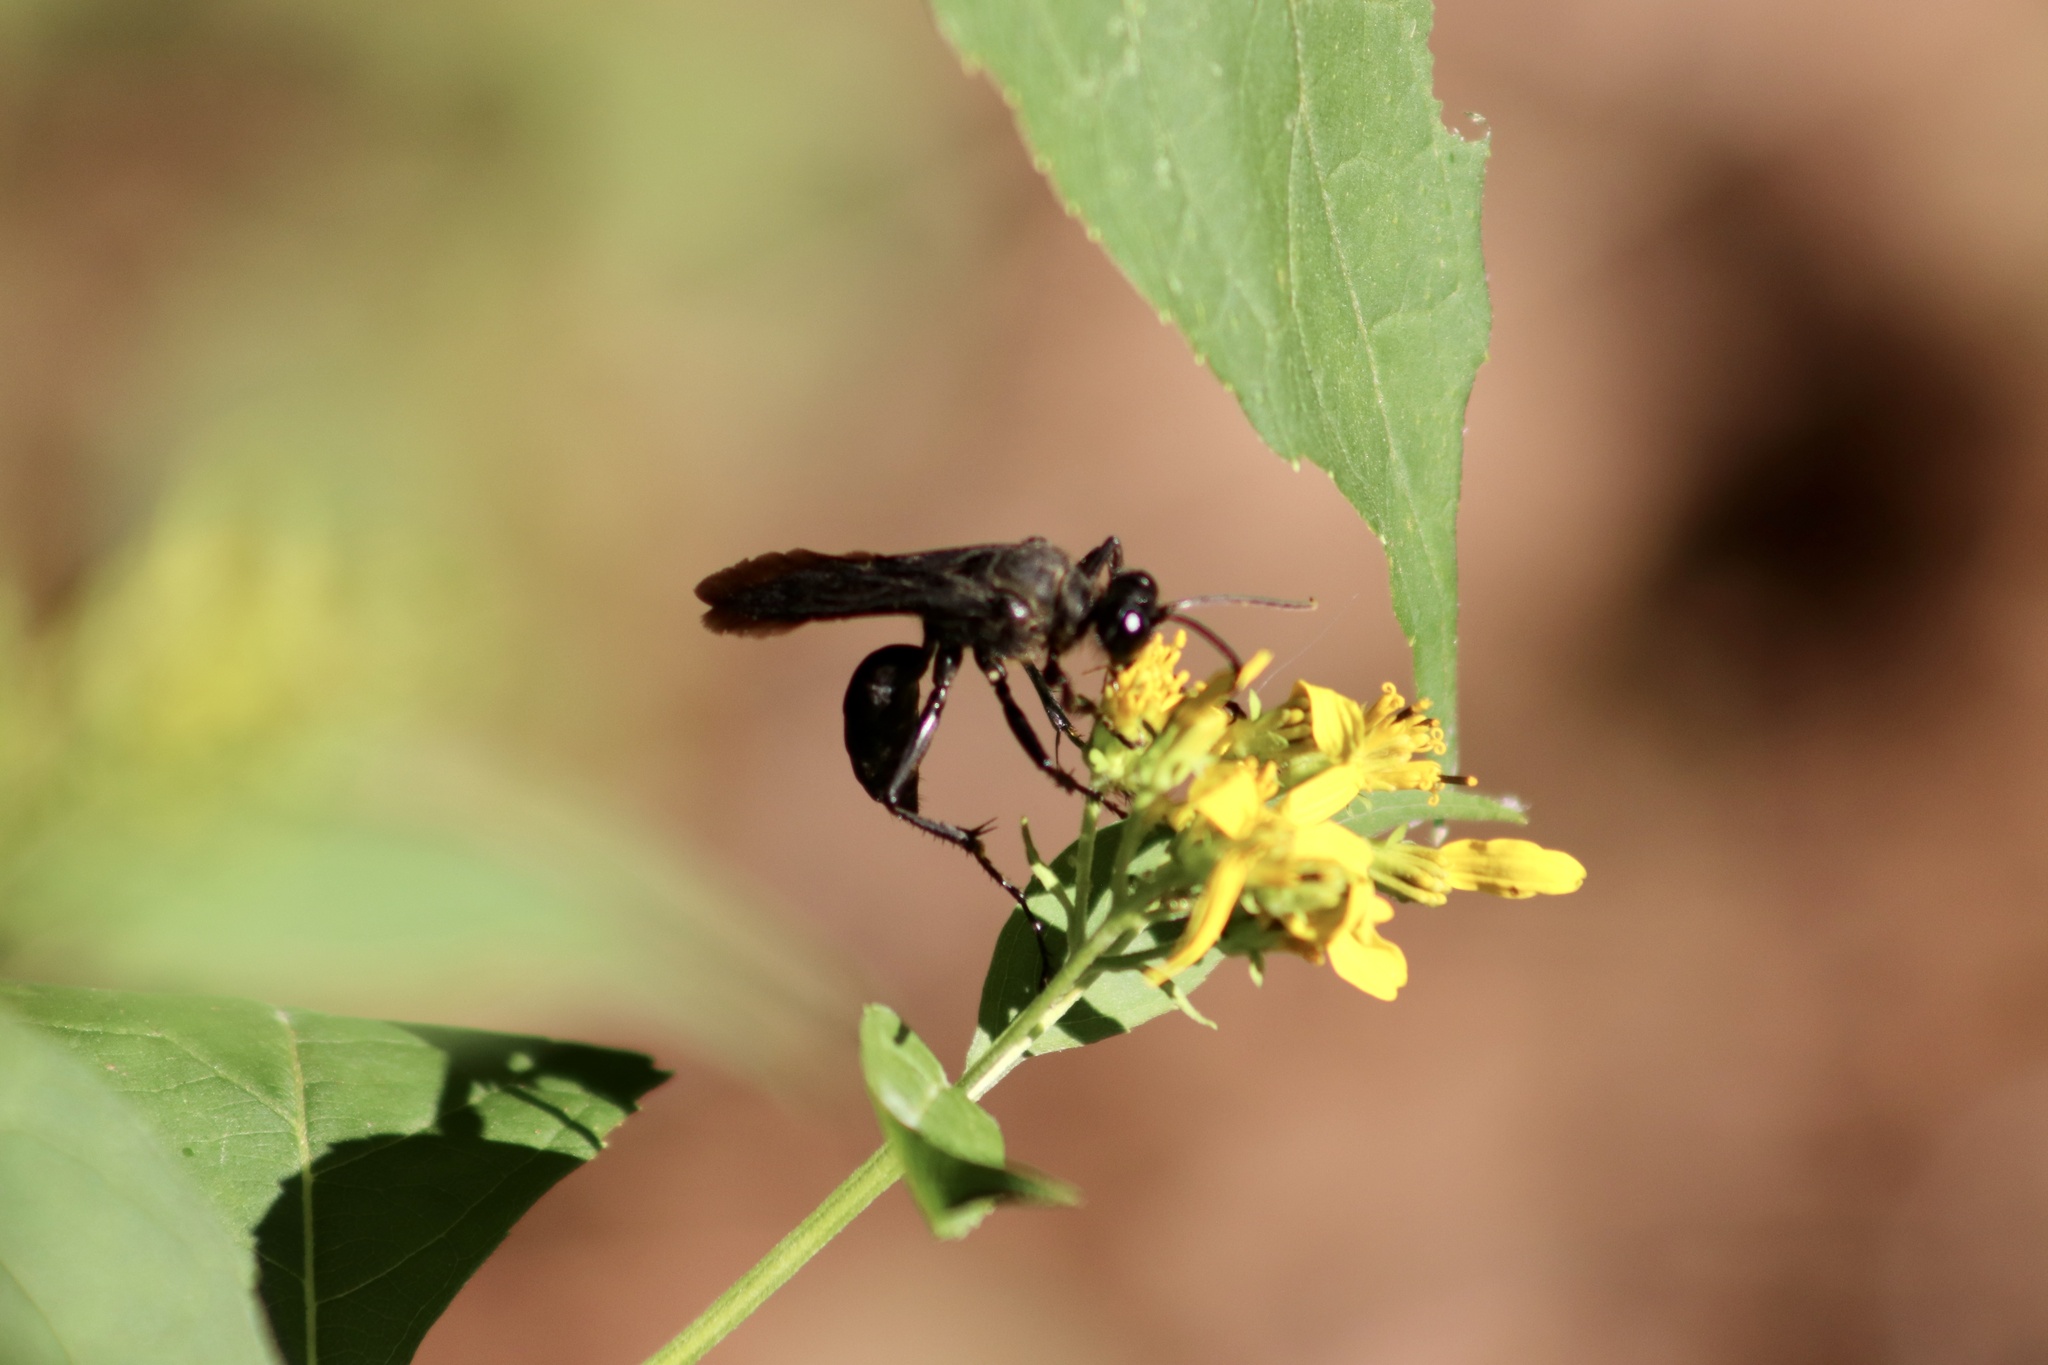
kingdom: Animalia
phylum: Arthropoda
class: Insecta
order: Hymenoptera
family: Sphecidae
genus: Sphex
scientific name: Sphex pensylvanicus
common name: Great black digger wasp
